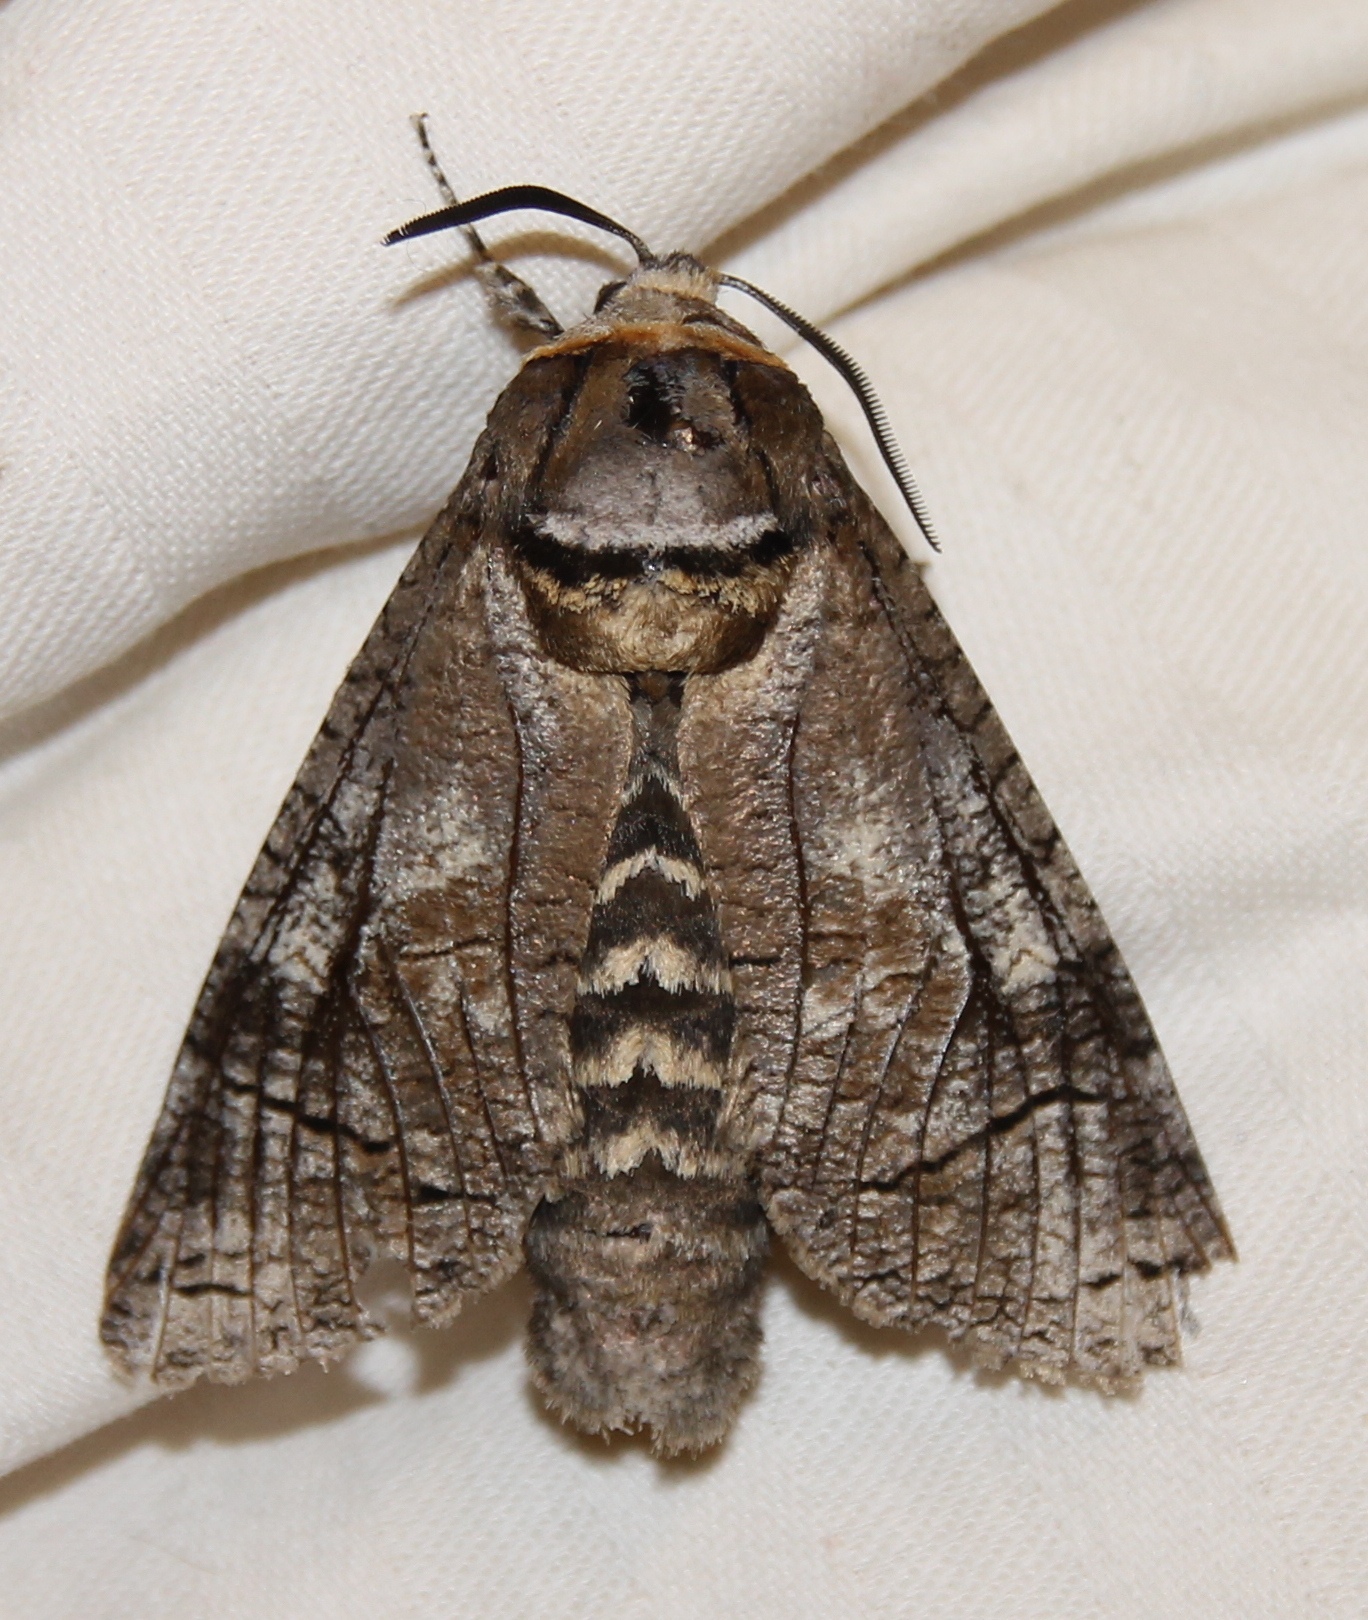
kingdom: Animalia
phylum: Arthropoda
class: Insecta
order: Lepidoptera
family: Cossidae
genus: Cossus
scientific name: Cossus cossus
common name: Goat moth
